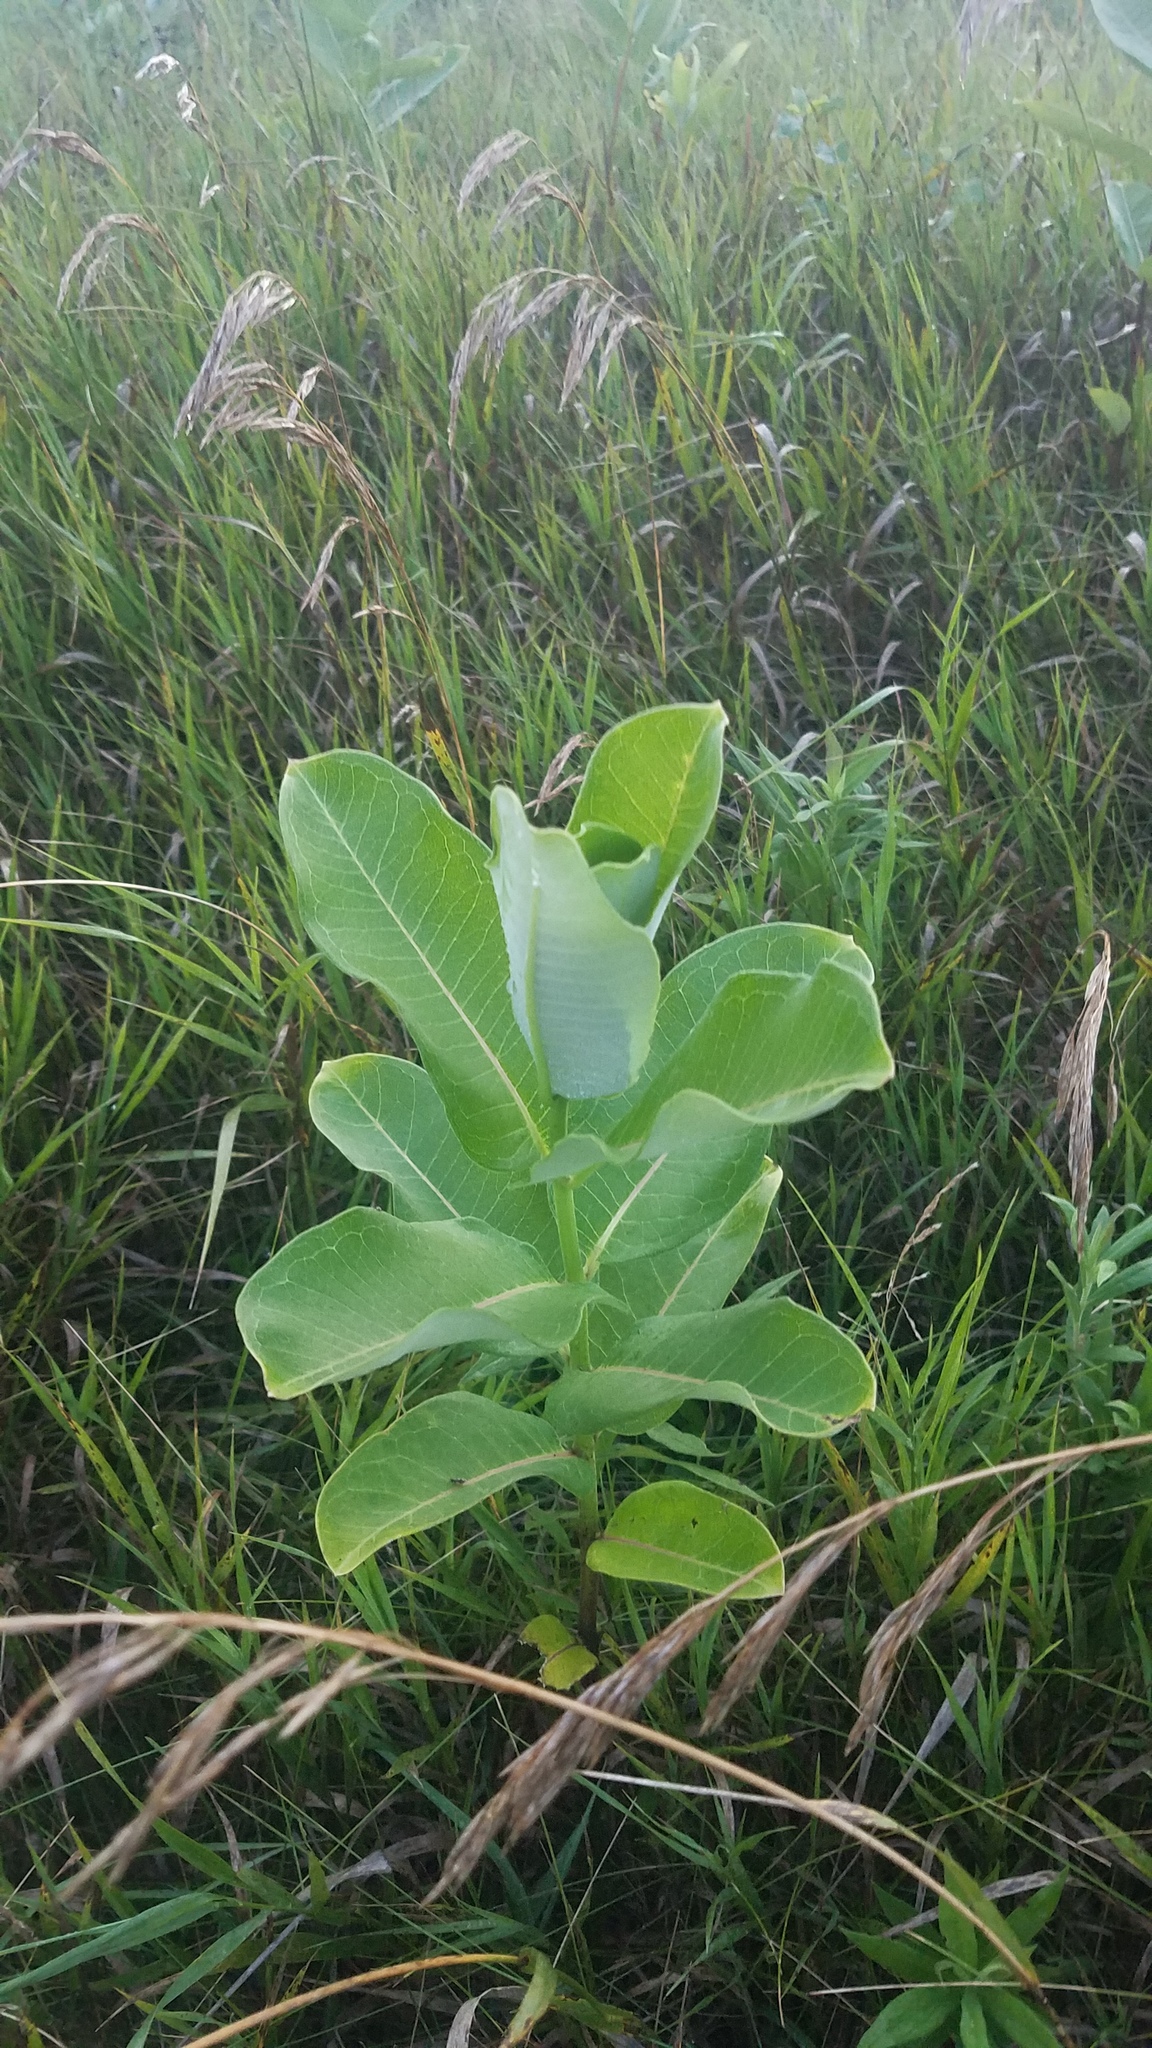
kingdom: Plantae
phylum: Tracheophyta
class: Magnoliopsida
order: Gentianales
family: Apocynaceae
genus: Asclepias
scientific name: Asclepias syriaca
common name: Common milkweed
